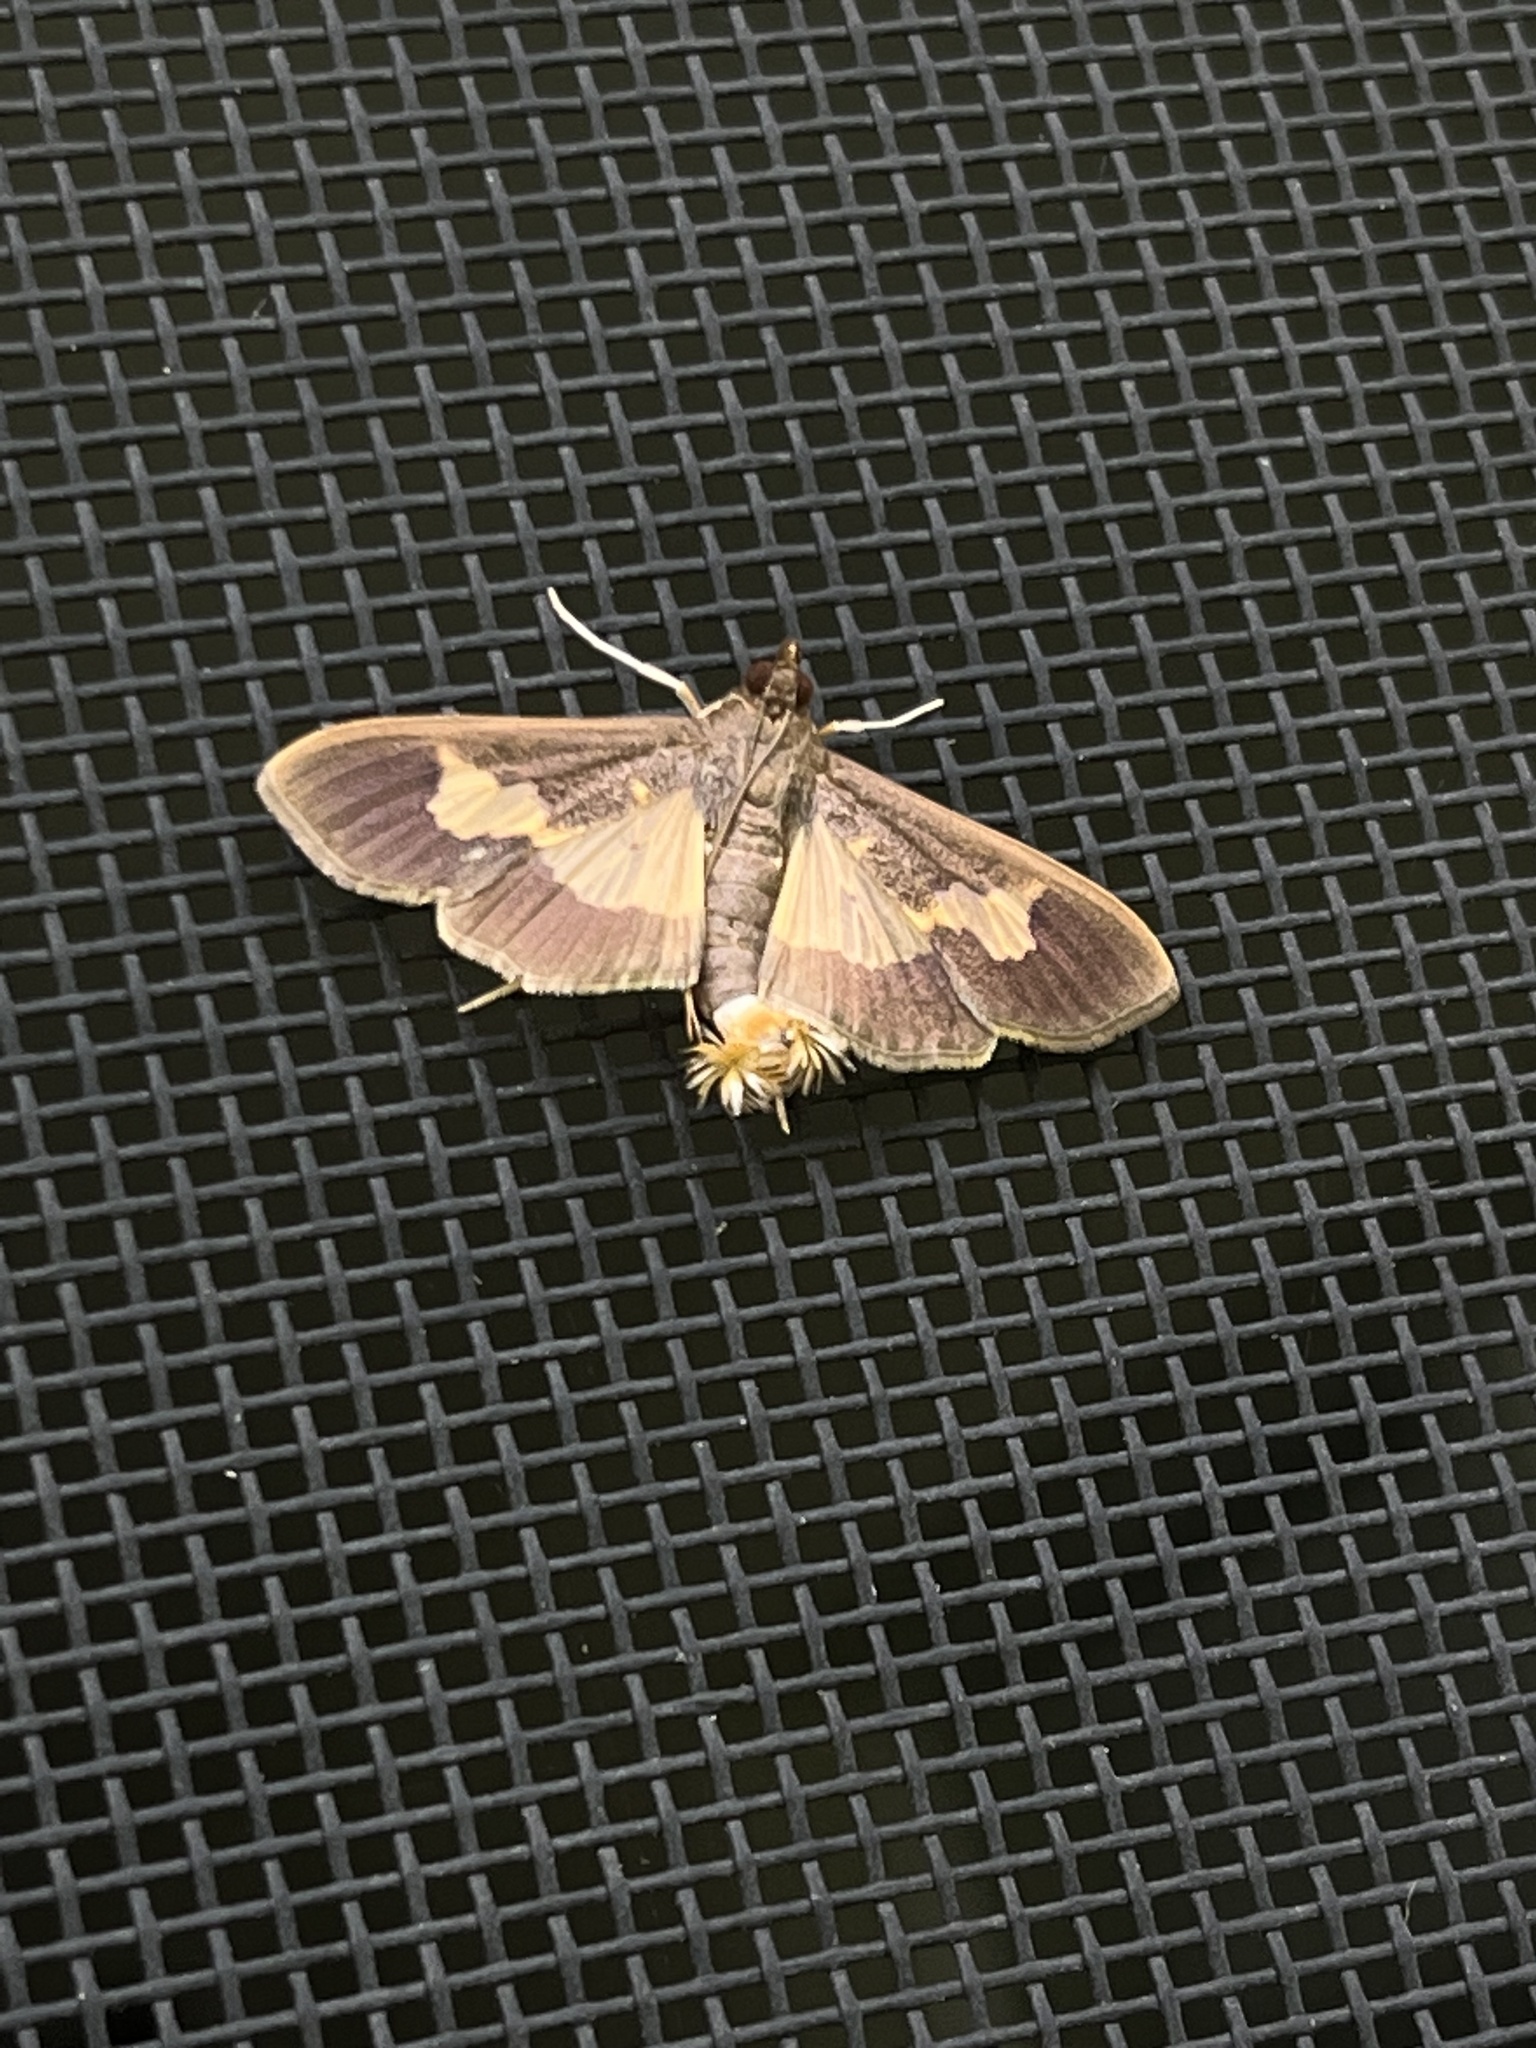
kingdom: Animalia
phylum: Arthropoda
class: Insecta
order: Lepidoptera
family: Crambidae
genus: Cryptographis
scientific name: Cryptographis nitidalis
